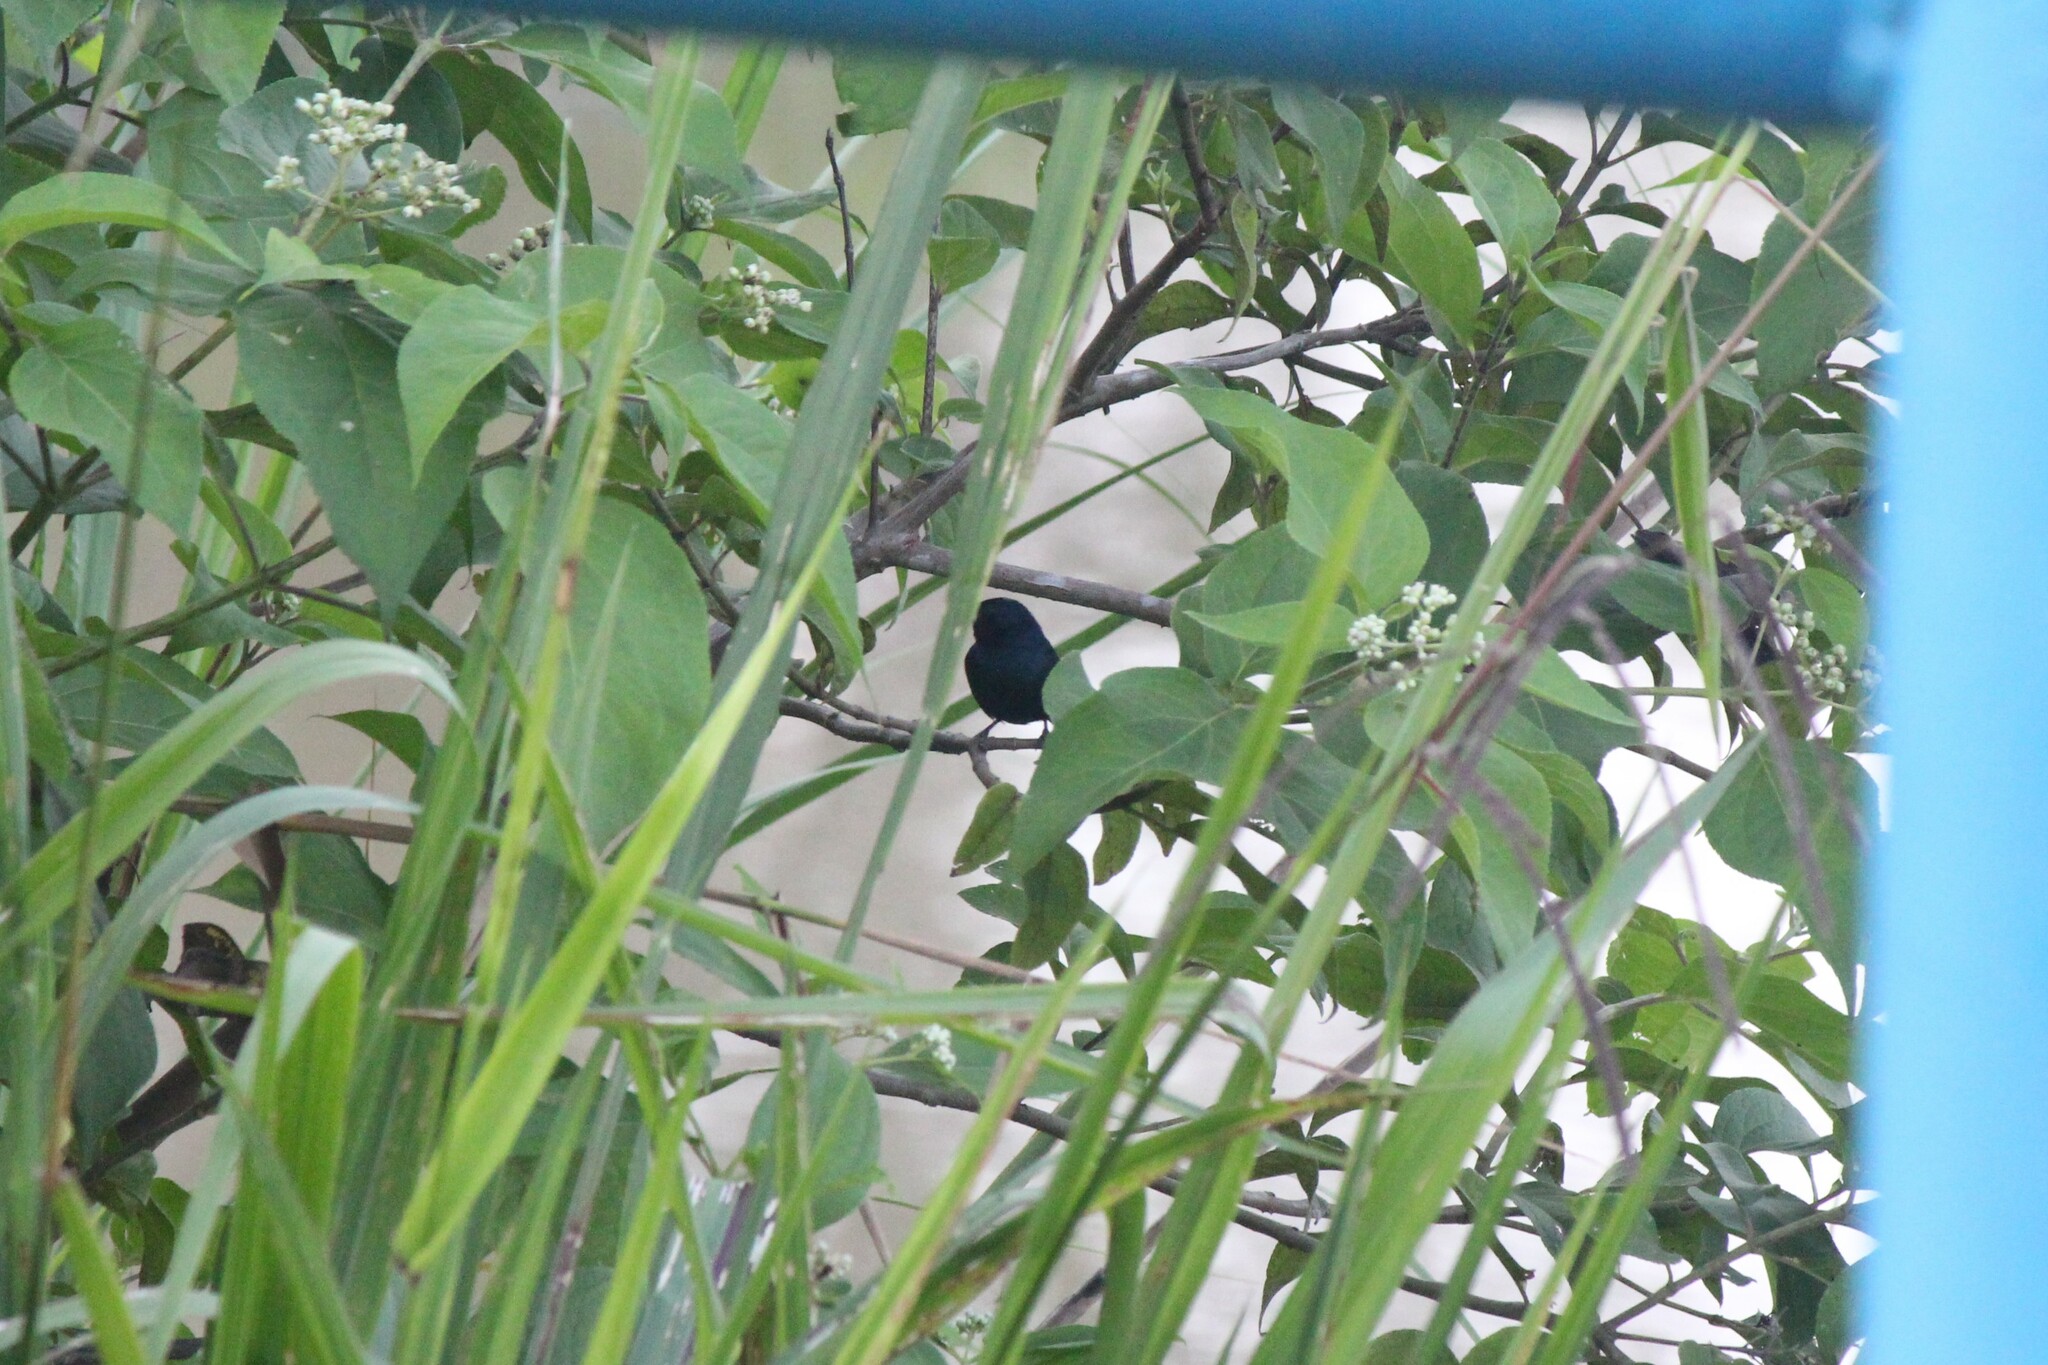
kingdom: Animalia
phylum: Chordata
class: Aves
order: Passeriformes
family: Thraupidae
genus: Volatinia
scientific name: Volatinia jacarina
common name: Blue-black grassquit
